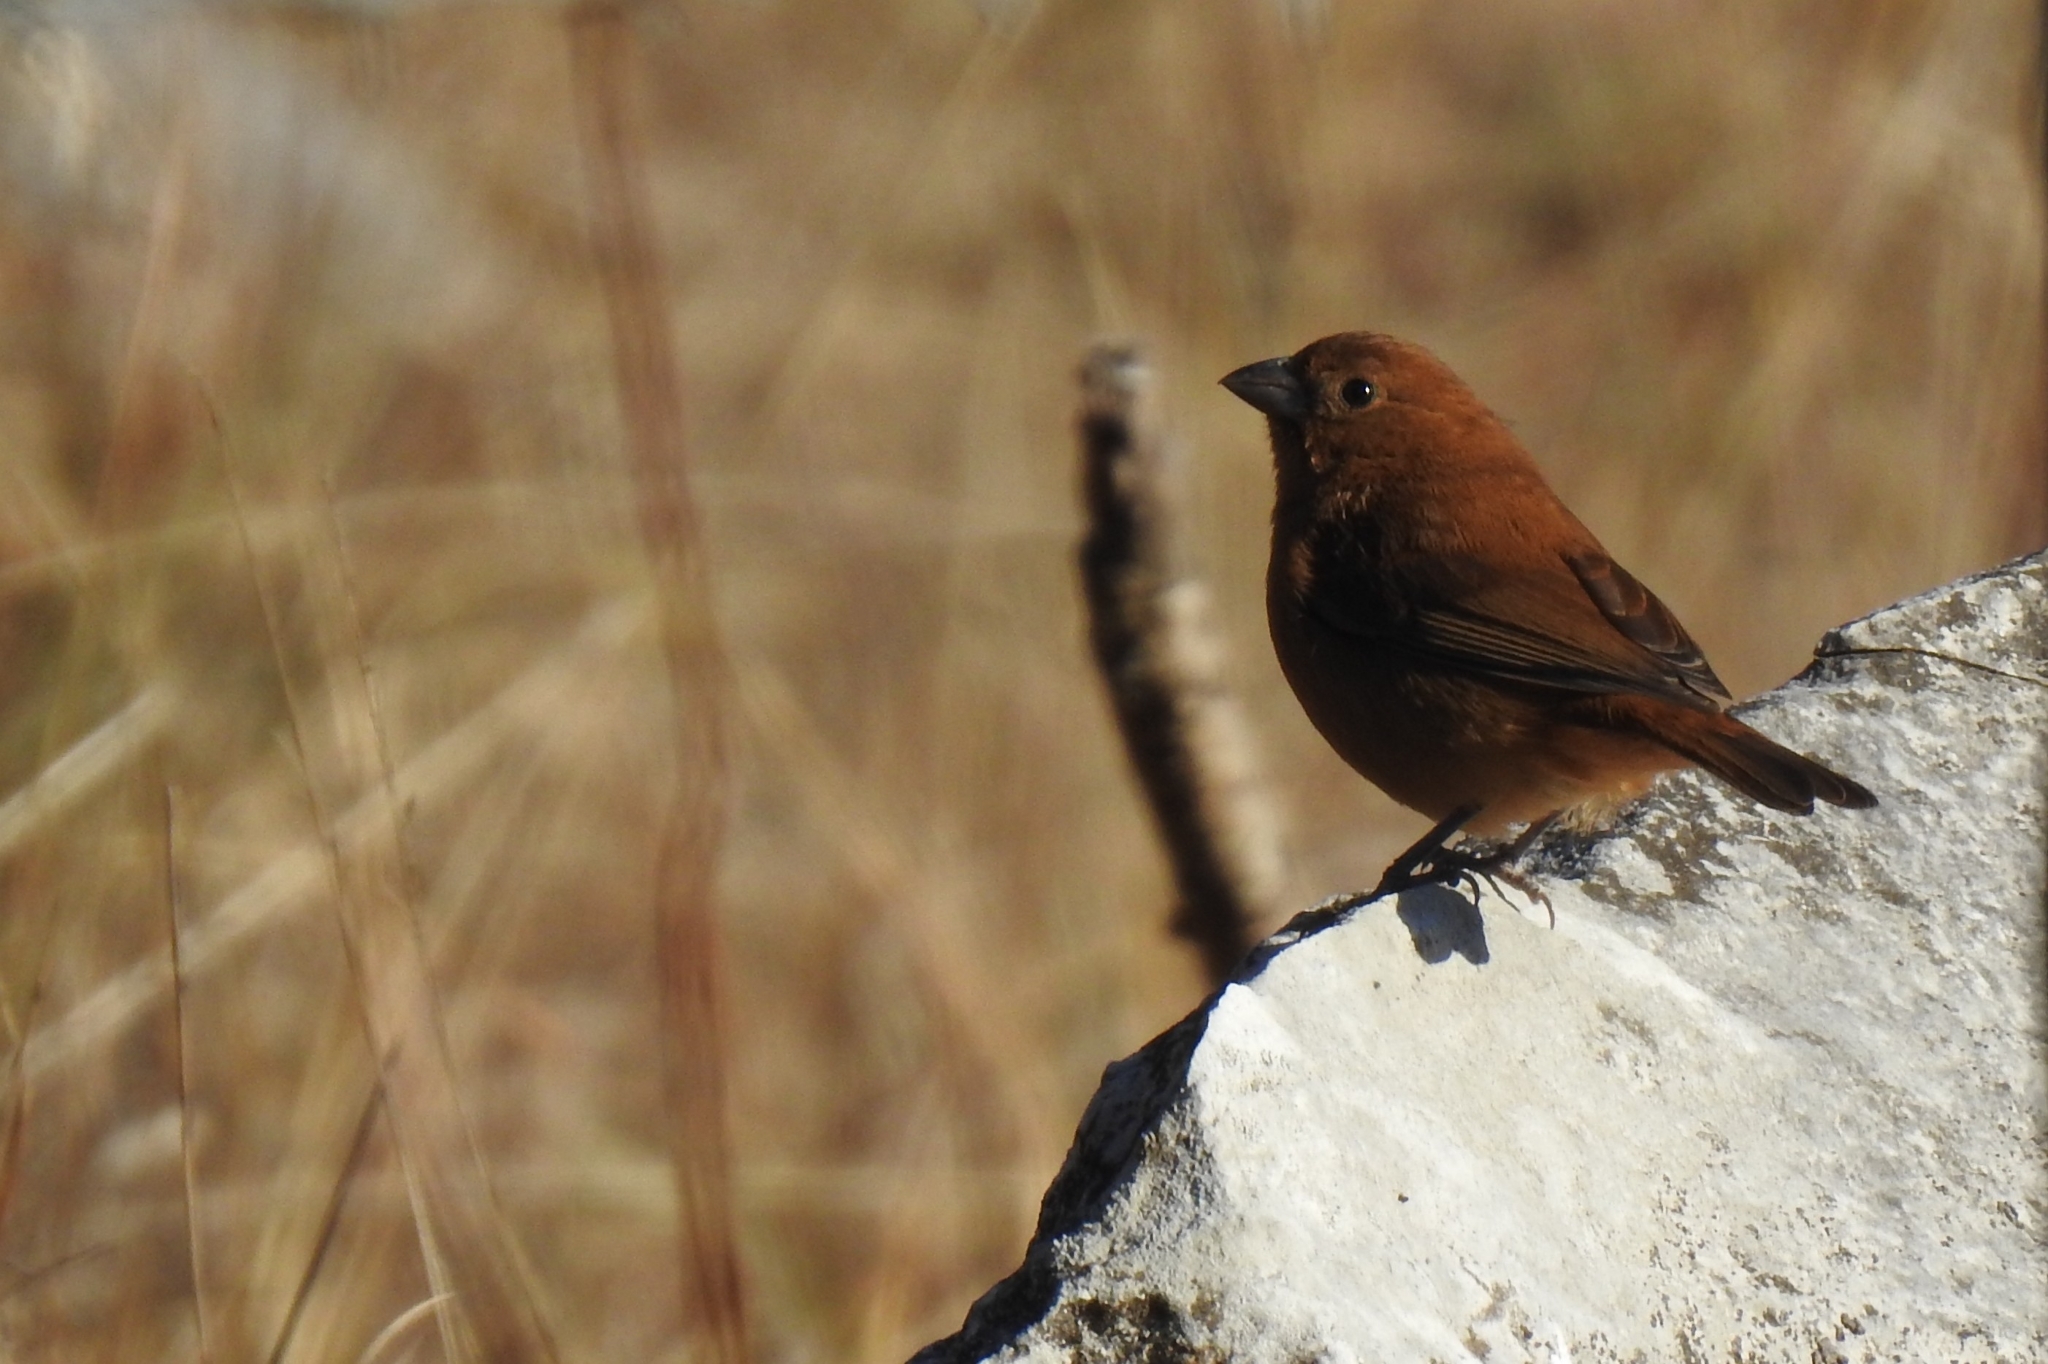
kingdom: Animalia
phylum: Chordata
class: Aves
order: Passeriformes
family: Cardinalidae
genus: Cyanocompsa
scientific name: Cyanocompsa parellina
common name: Blue bunting
